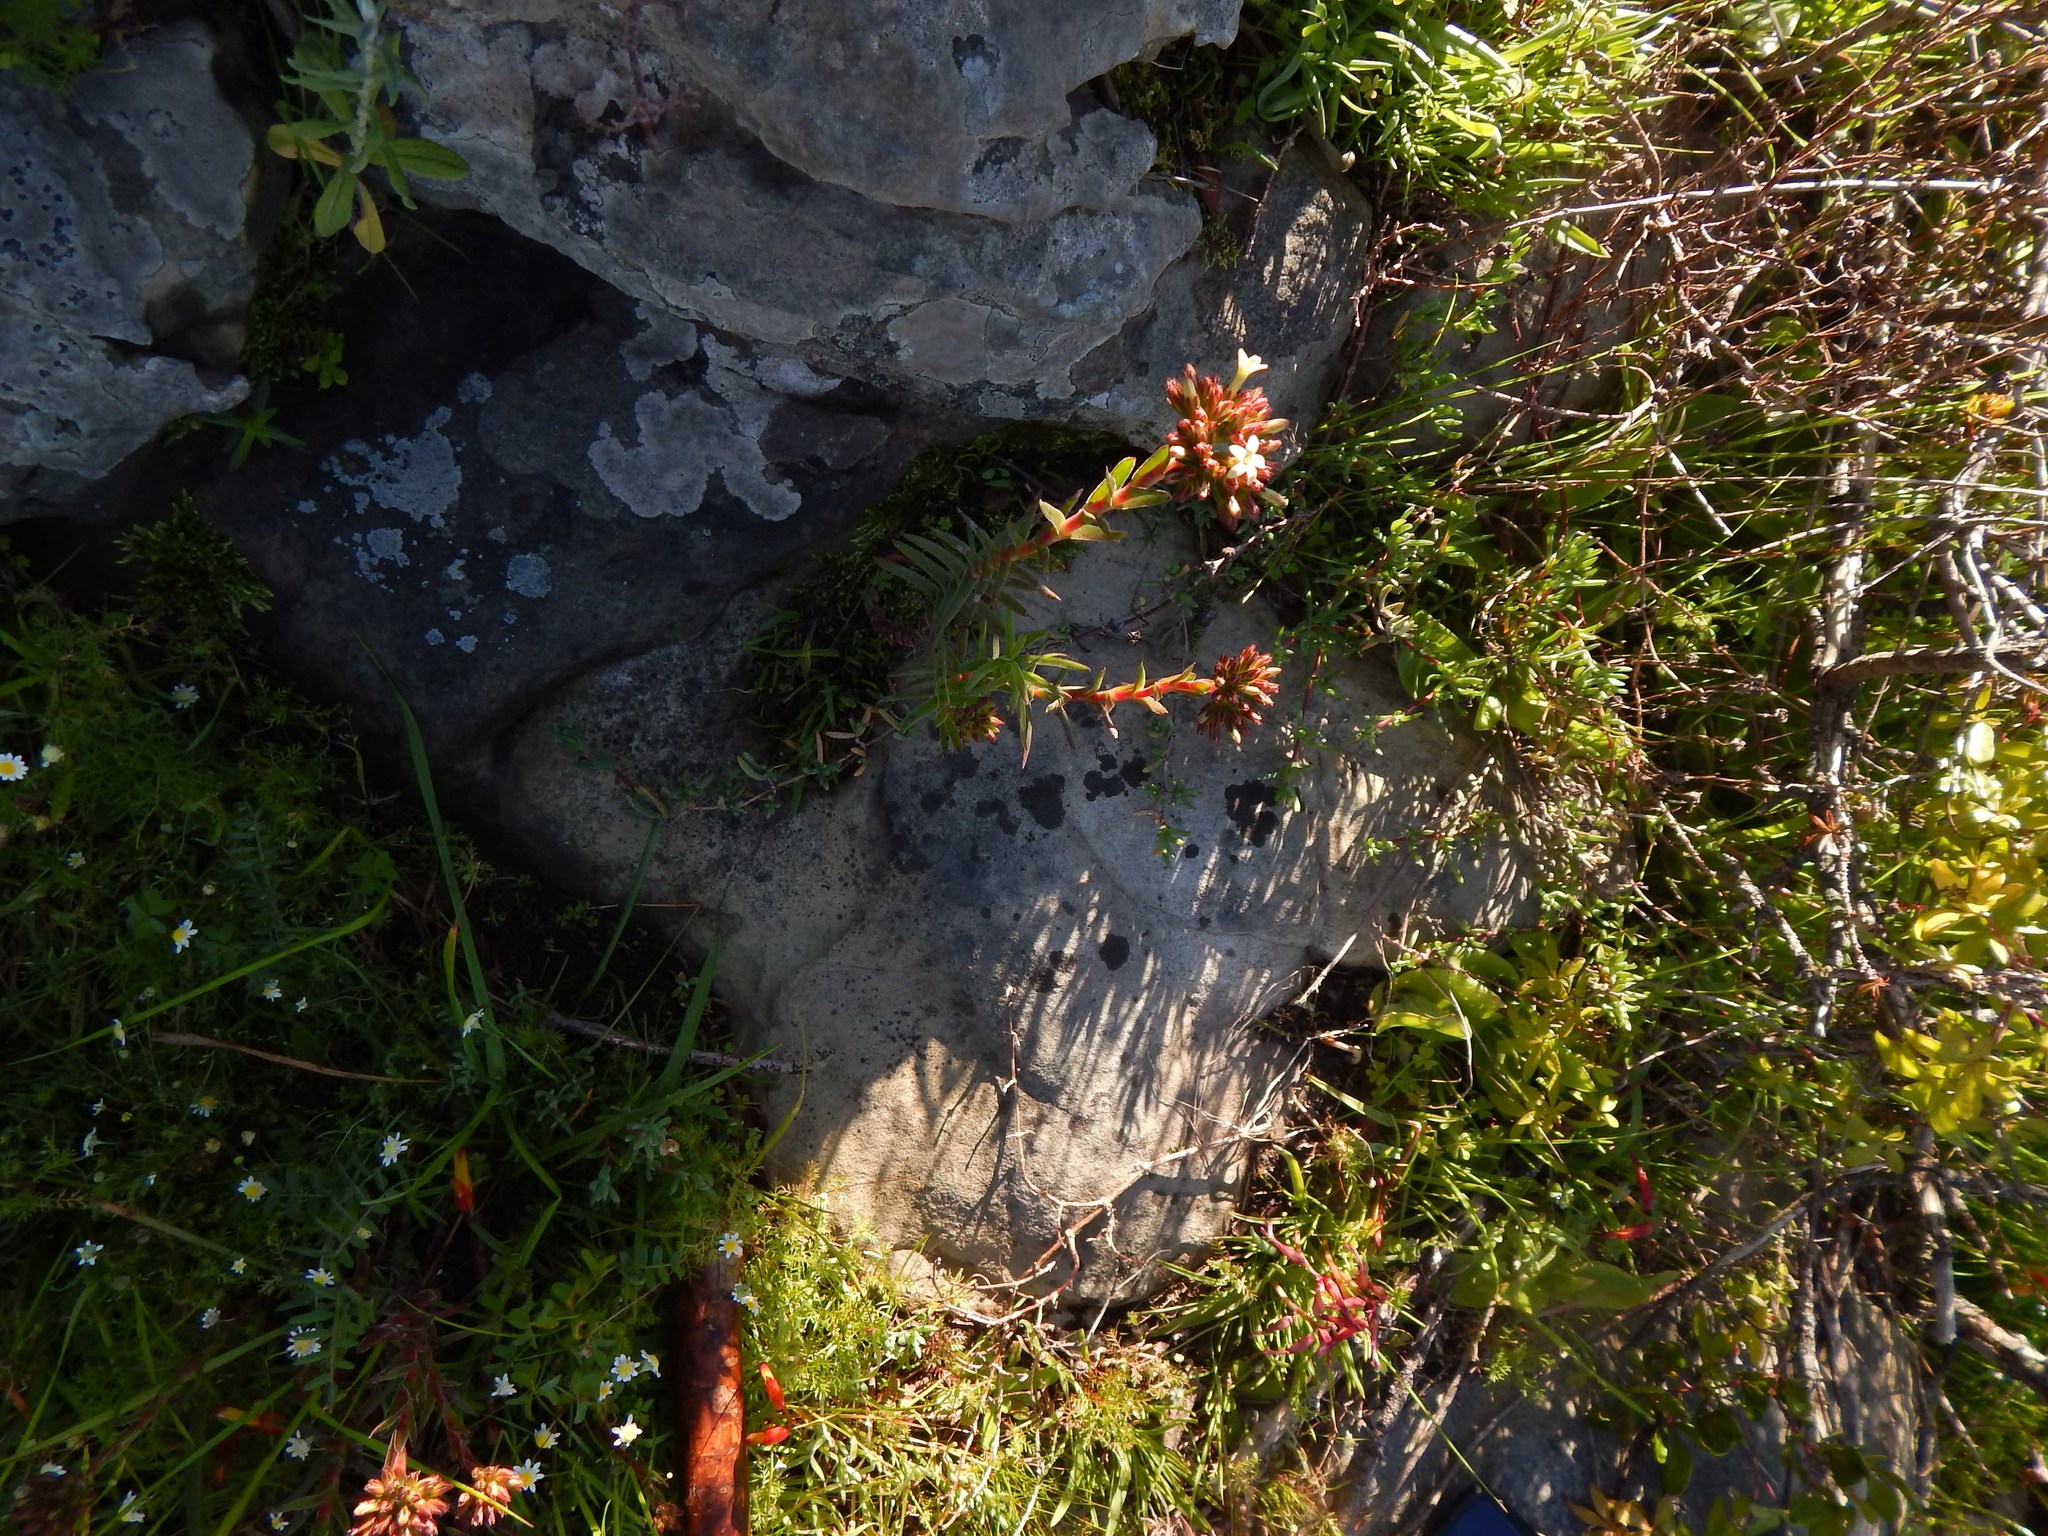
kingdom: Plantae
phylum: Tracheophyta
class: Magnoliopsida
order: Saxifragales
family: Crassulaceae
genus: Crassula
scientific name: Crassula fascicularis
